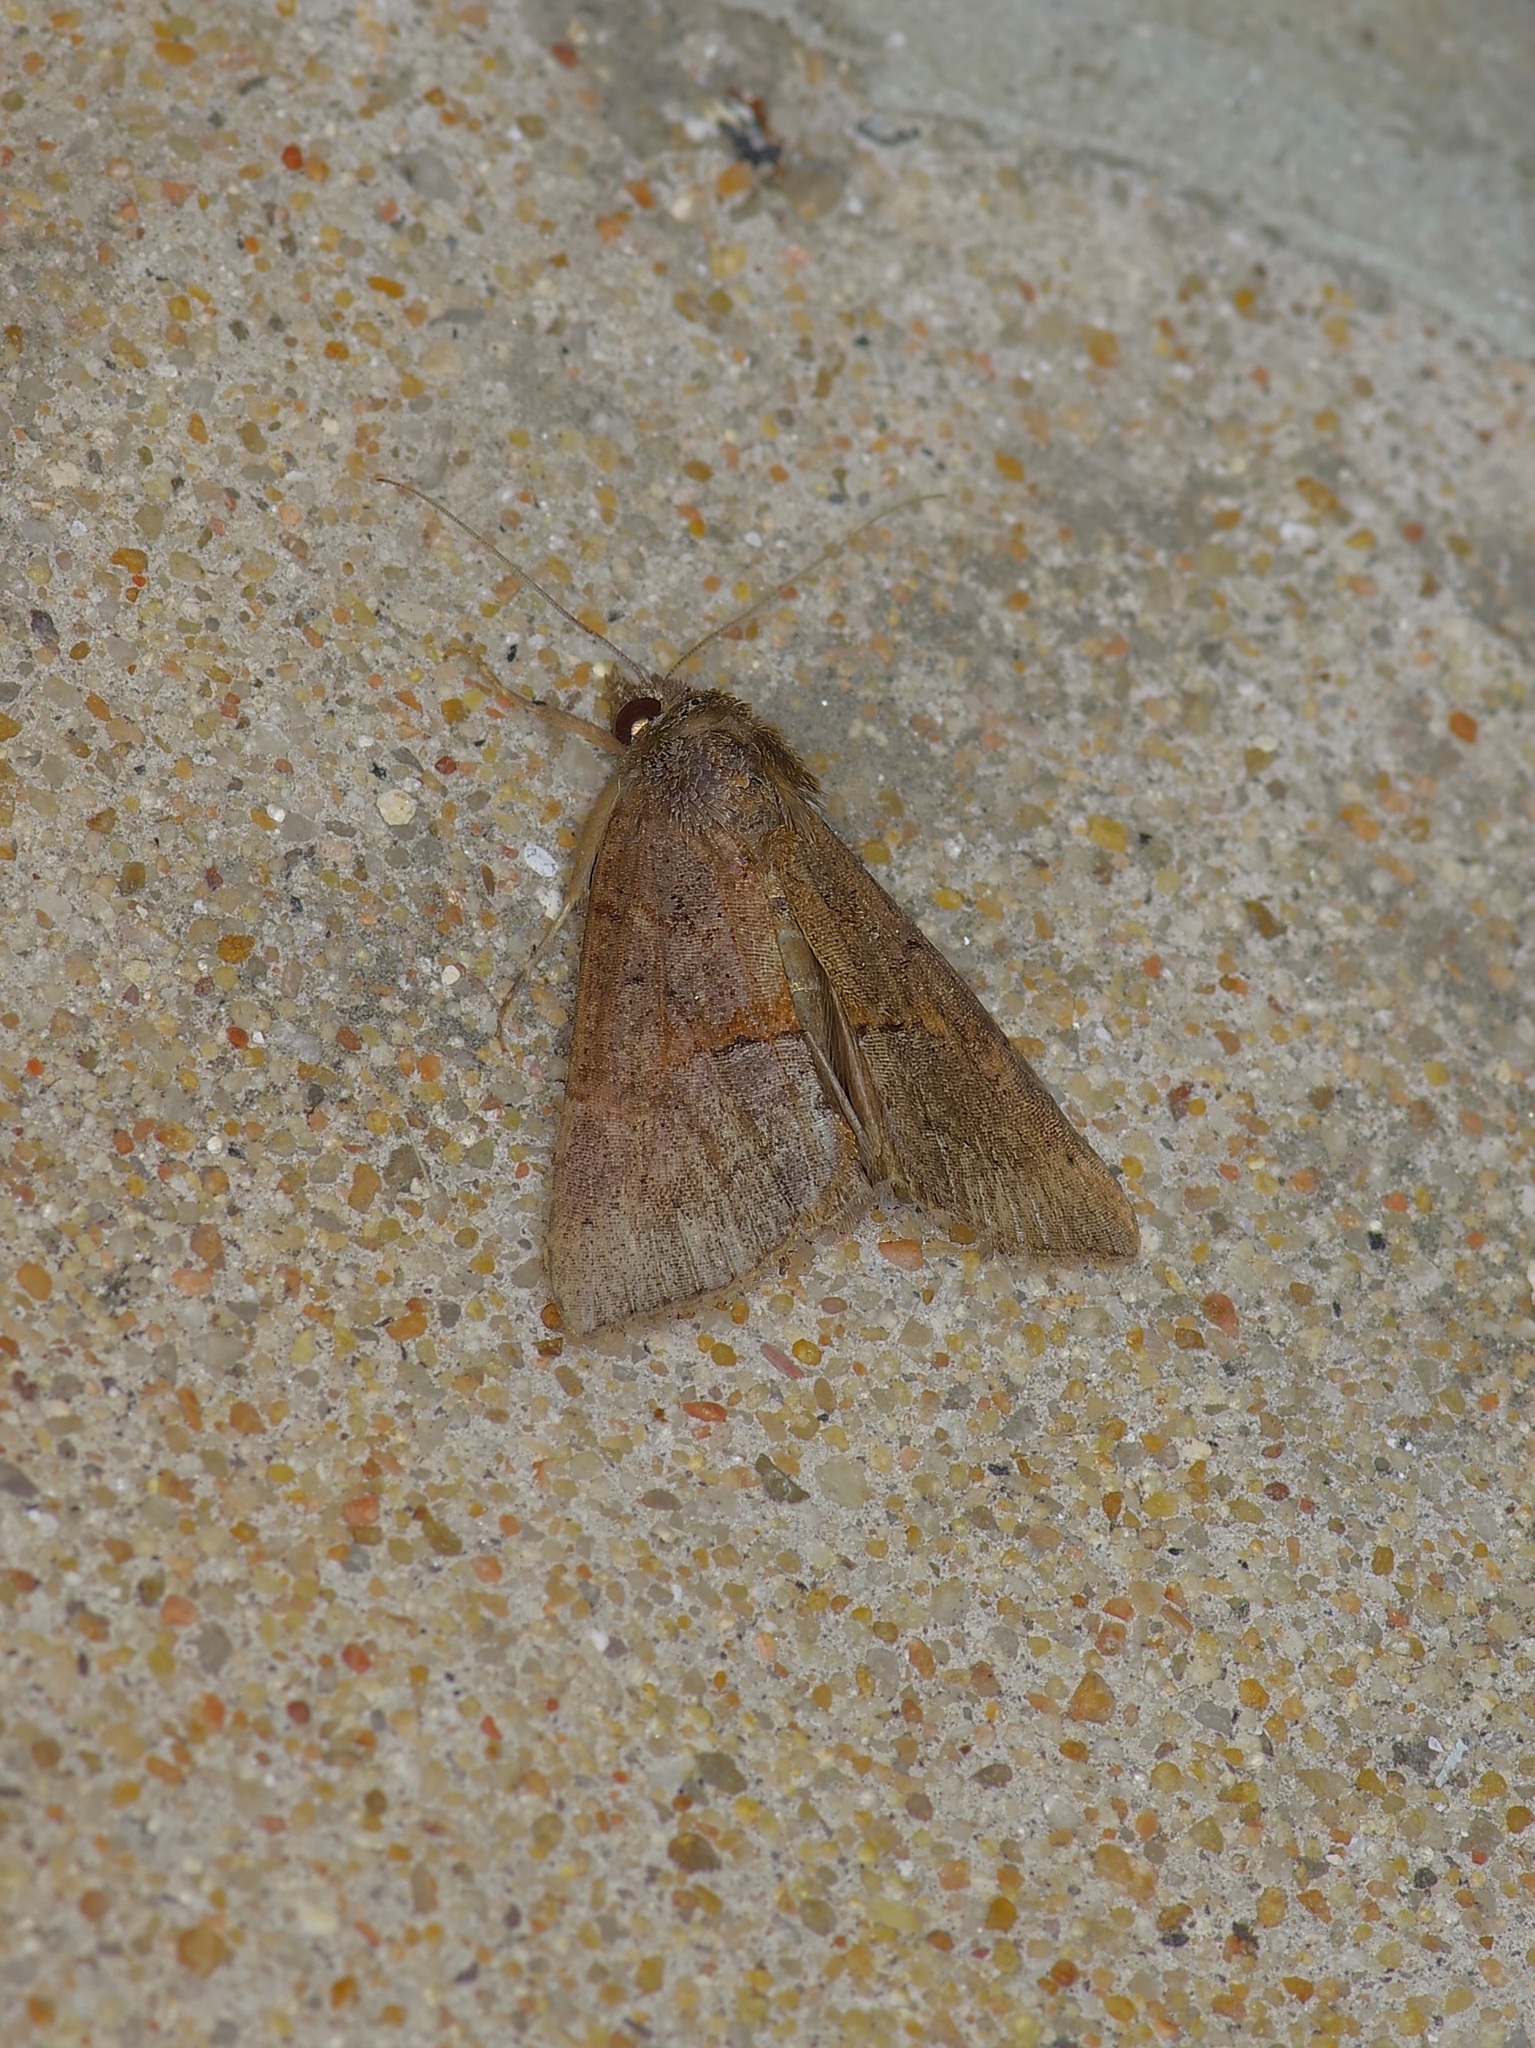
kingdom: Animalia
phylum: Arthropoda
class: Insecta
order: Lepidoptera
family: Erebidae
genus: Hypena
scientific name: Hypena scabra
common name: Green cloverworm
